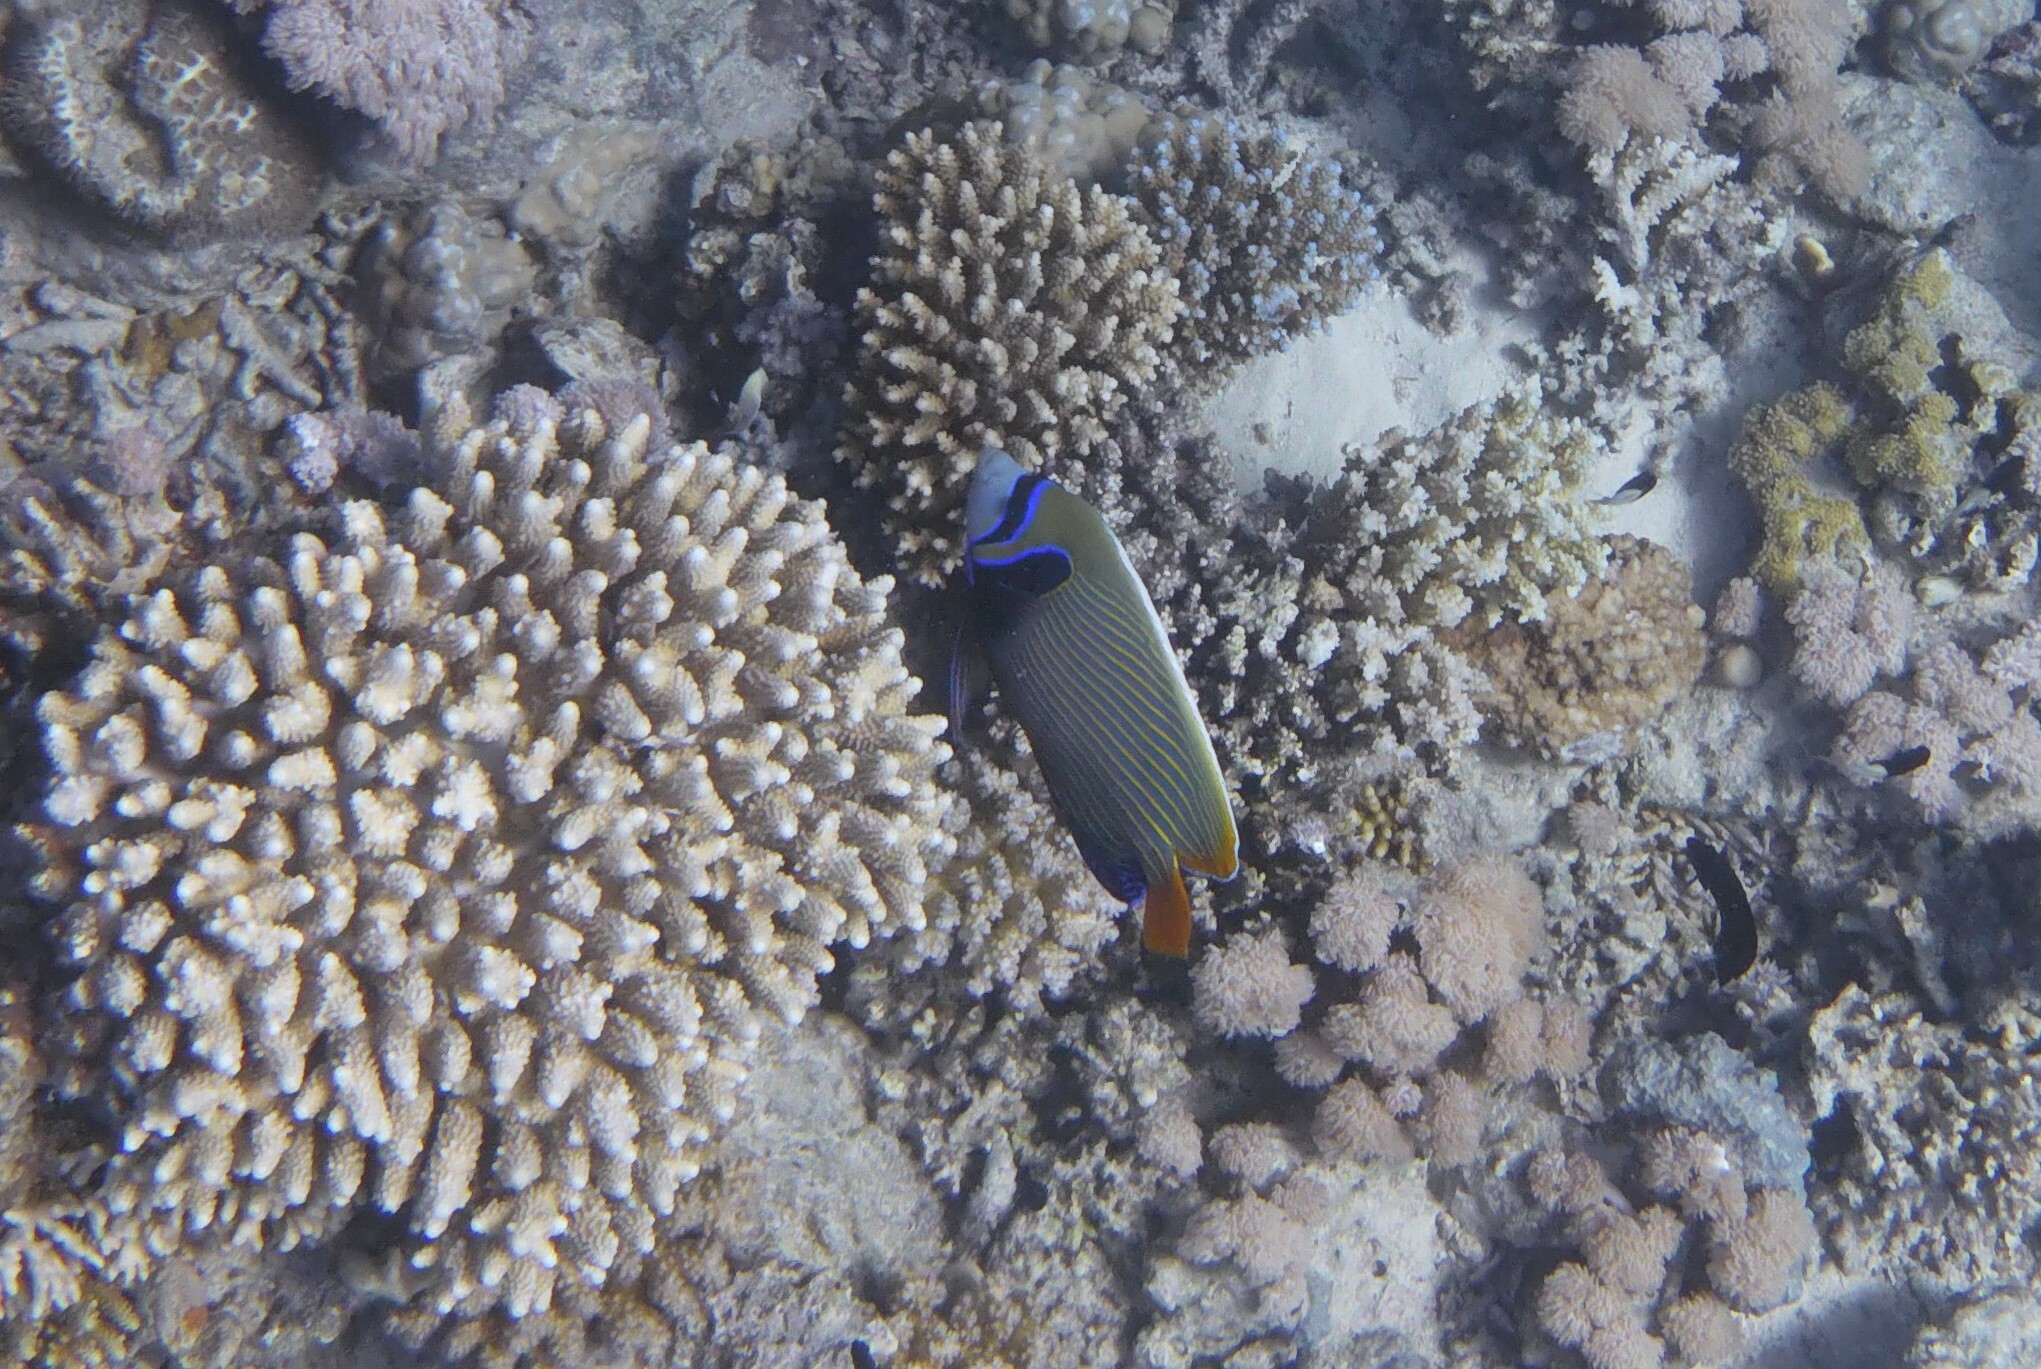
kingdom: Animalia
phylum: Chordata
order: Perciformes
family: Pomacanthidae
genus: Pomacanthus
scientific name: Pomacanthus imperator
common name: Emperor angelfish
